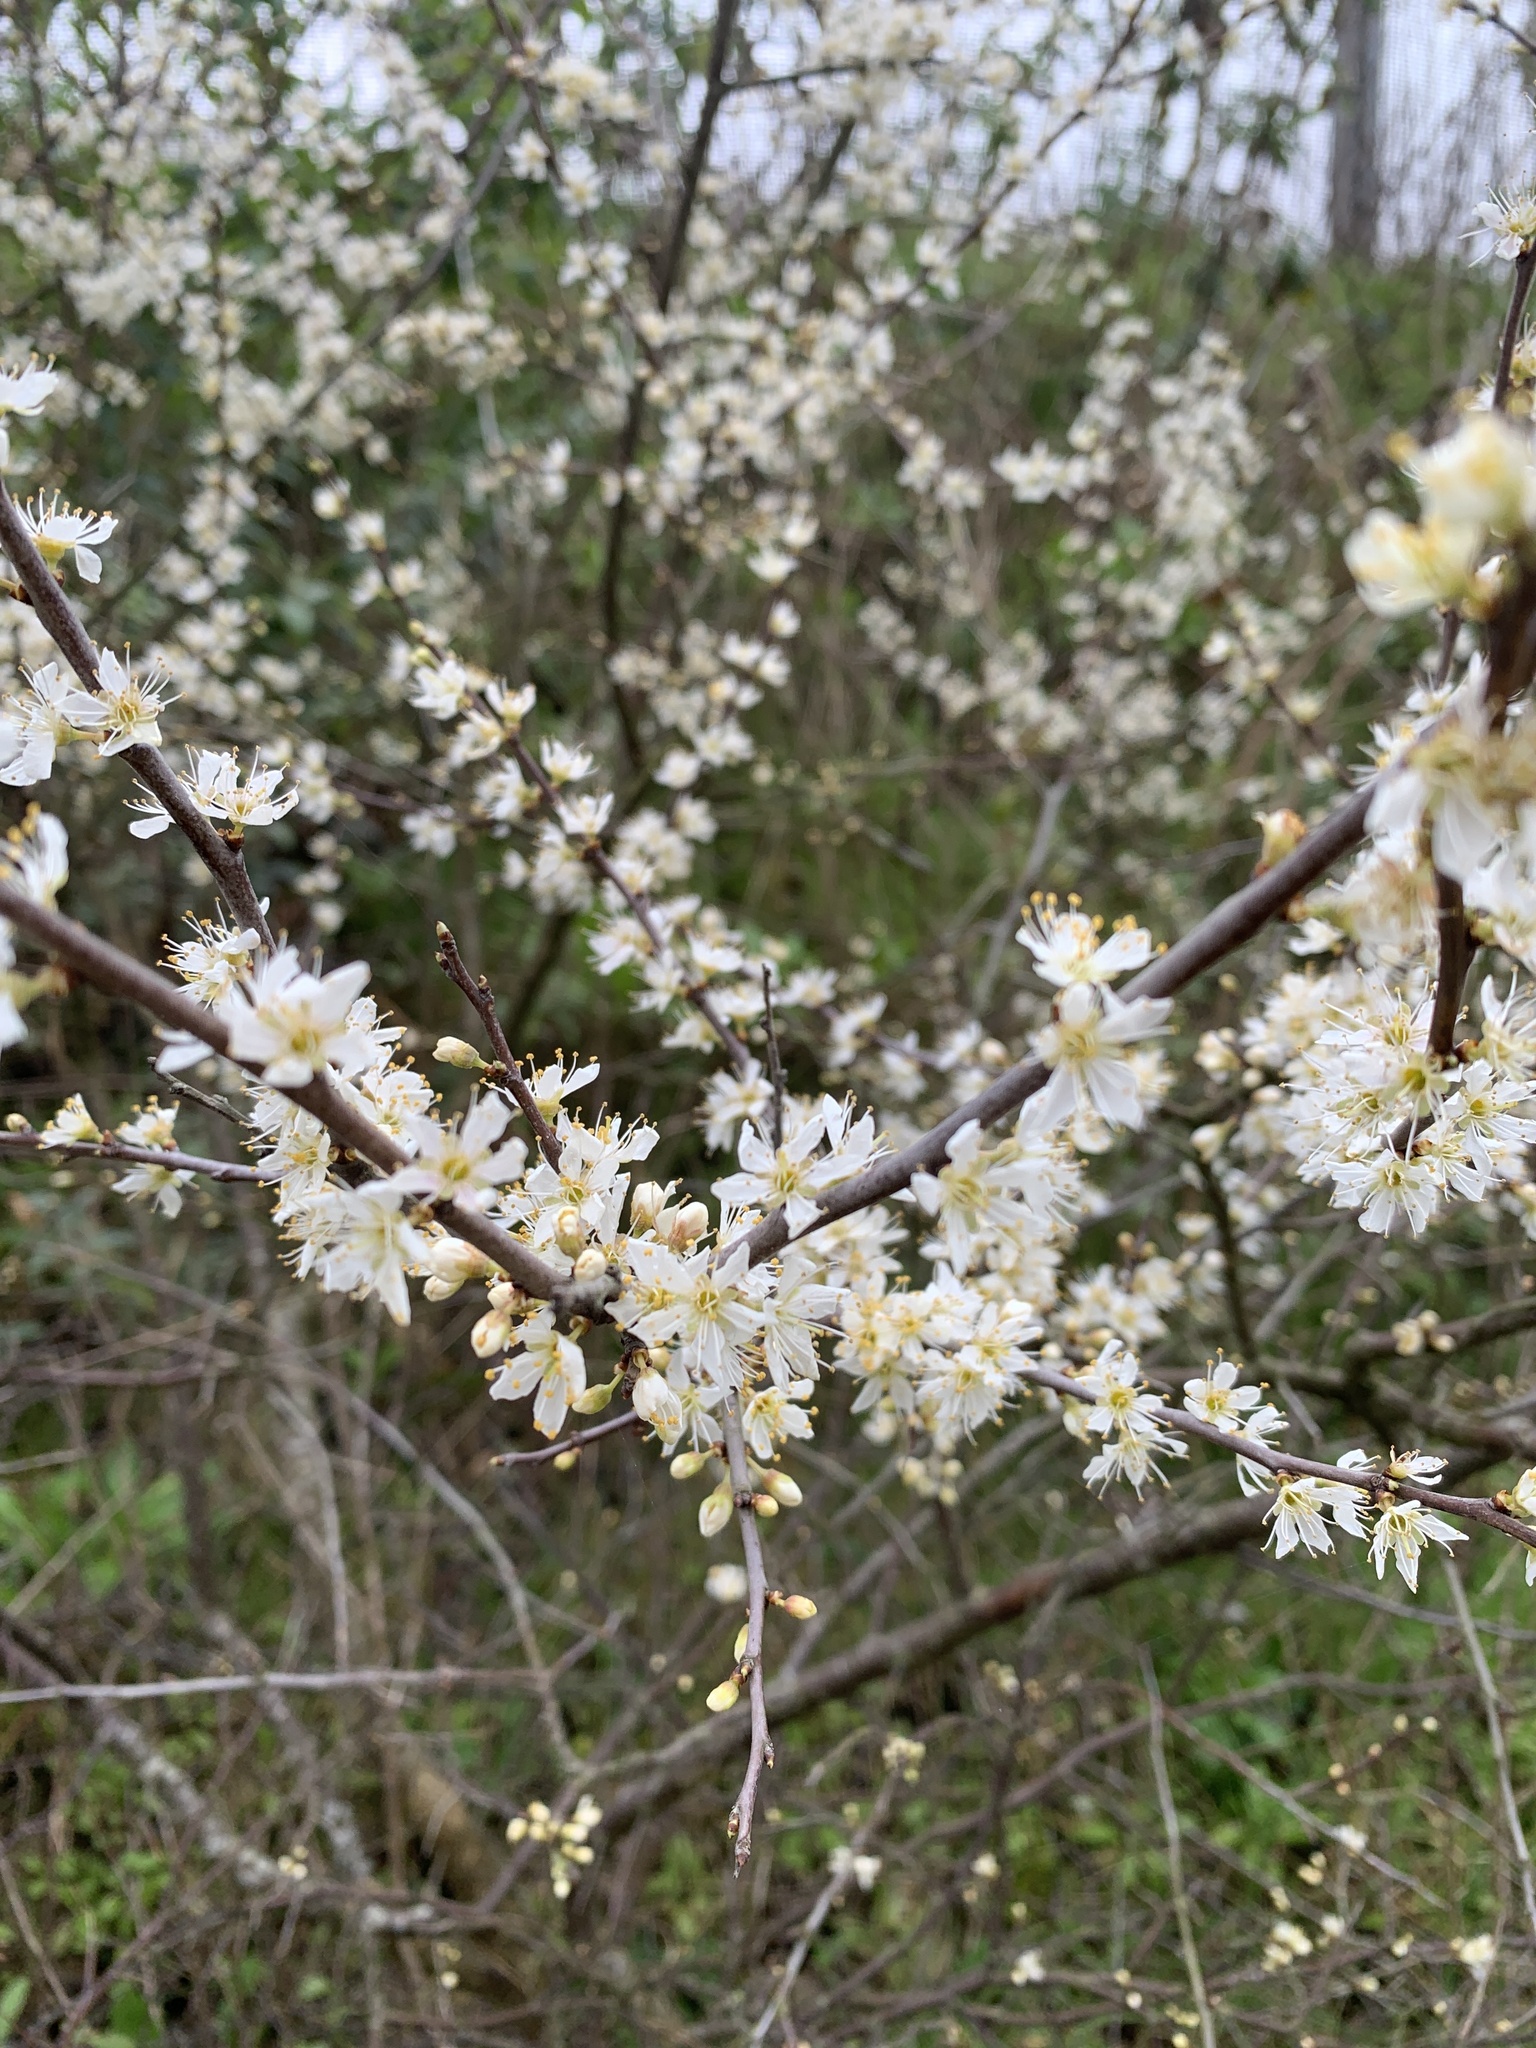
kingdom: Plantae
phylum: Tracheophyta
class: Magnoliopsida
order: Rosales
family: Rosaceae
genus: Prunus
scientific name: Prunus spinosa
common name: Blackthorn
